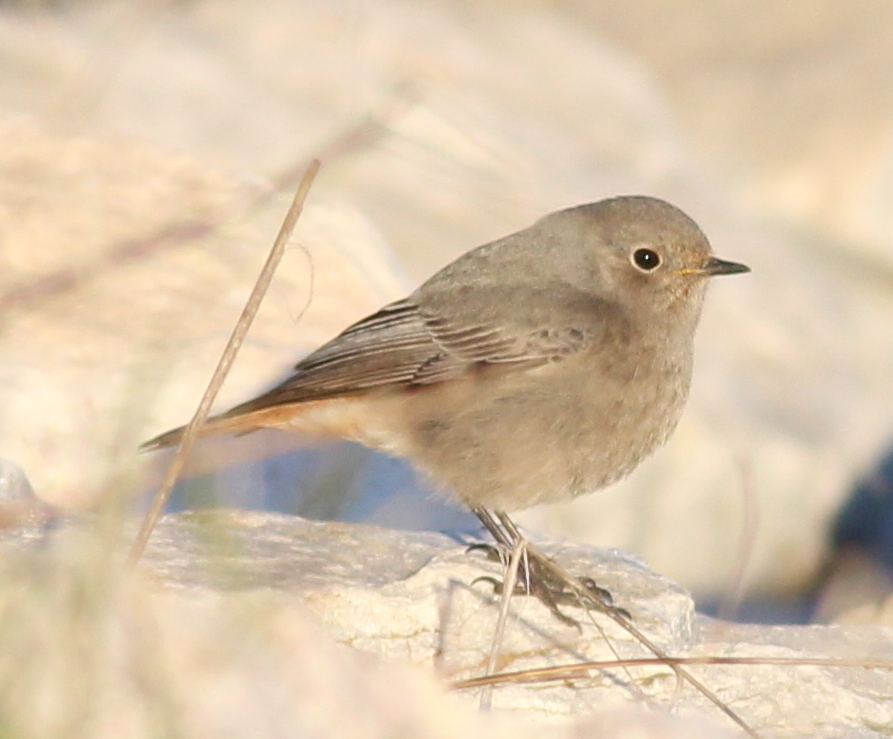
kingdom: Animalia
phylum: Chordata
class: Aves
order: Passeriformes
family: Muscicapidae
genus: Phoenicurus
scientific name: Phoenicurus ochruros
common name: Black redstart
